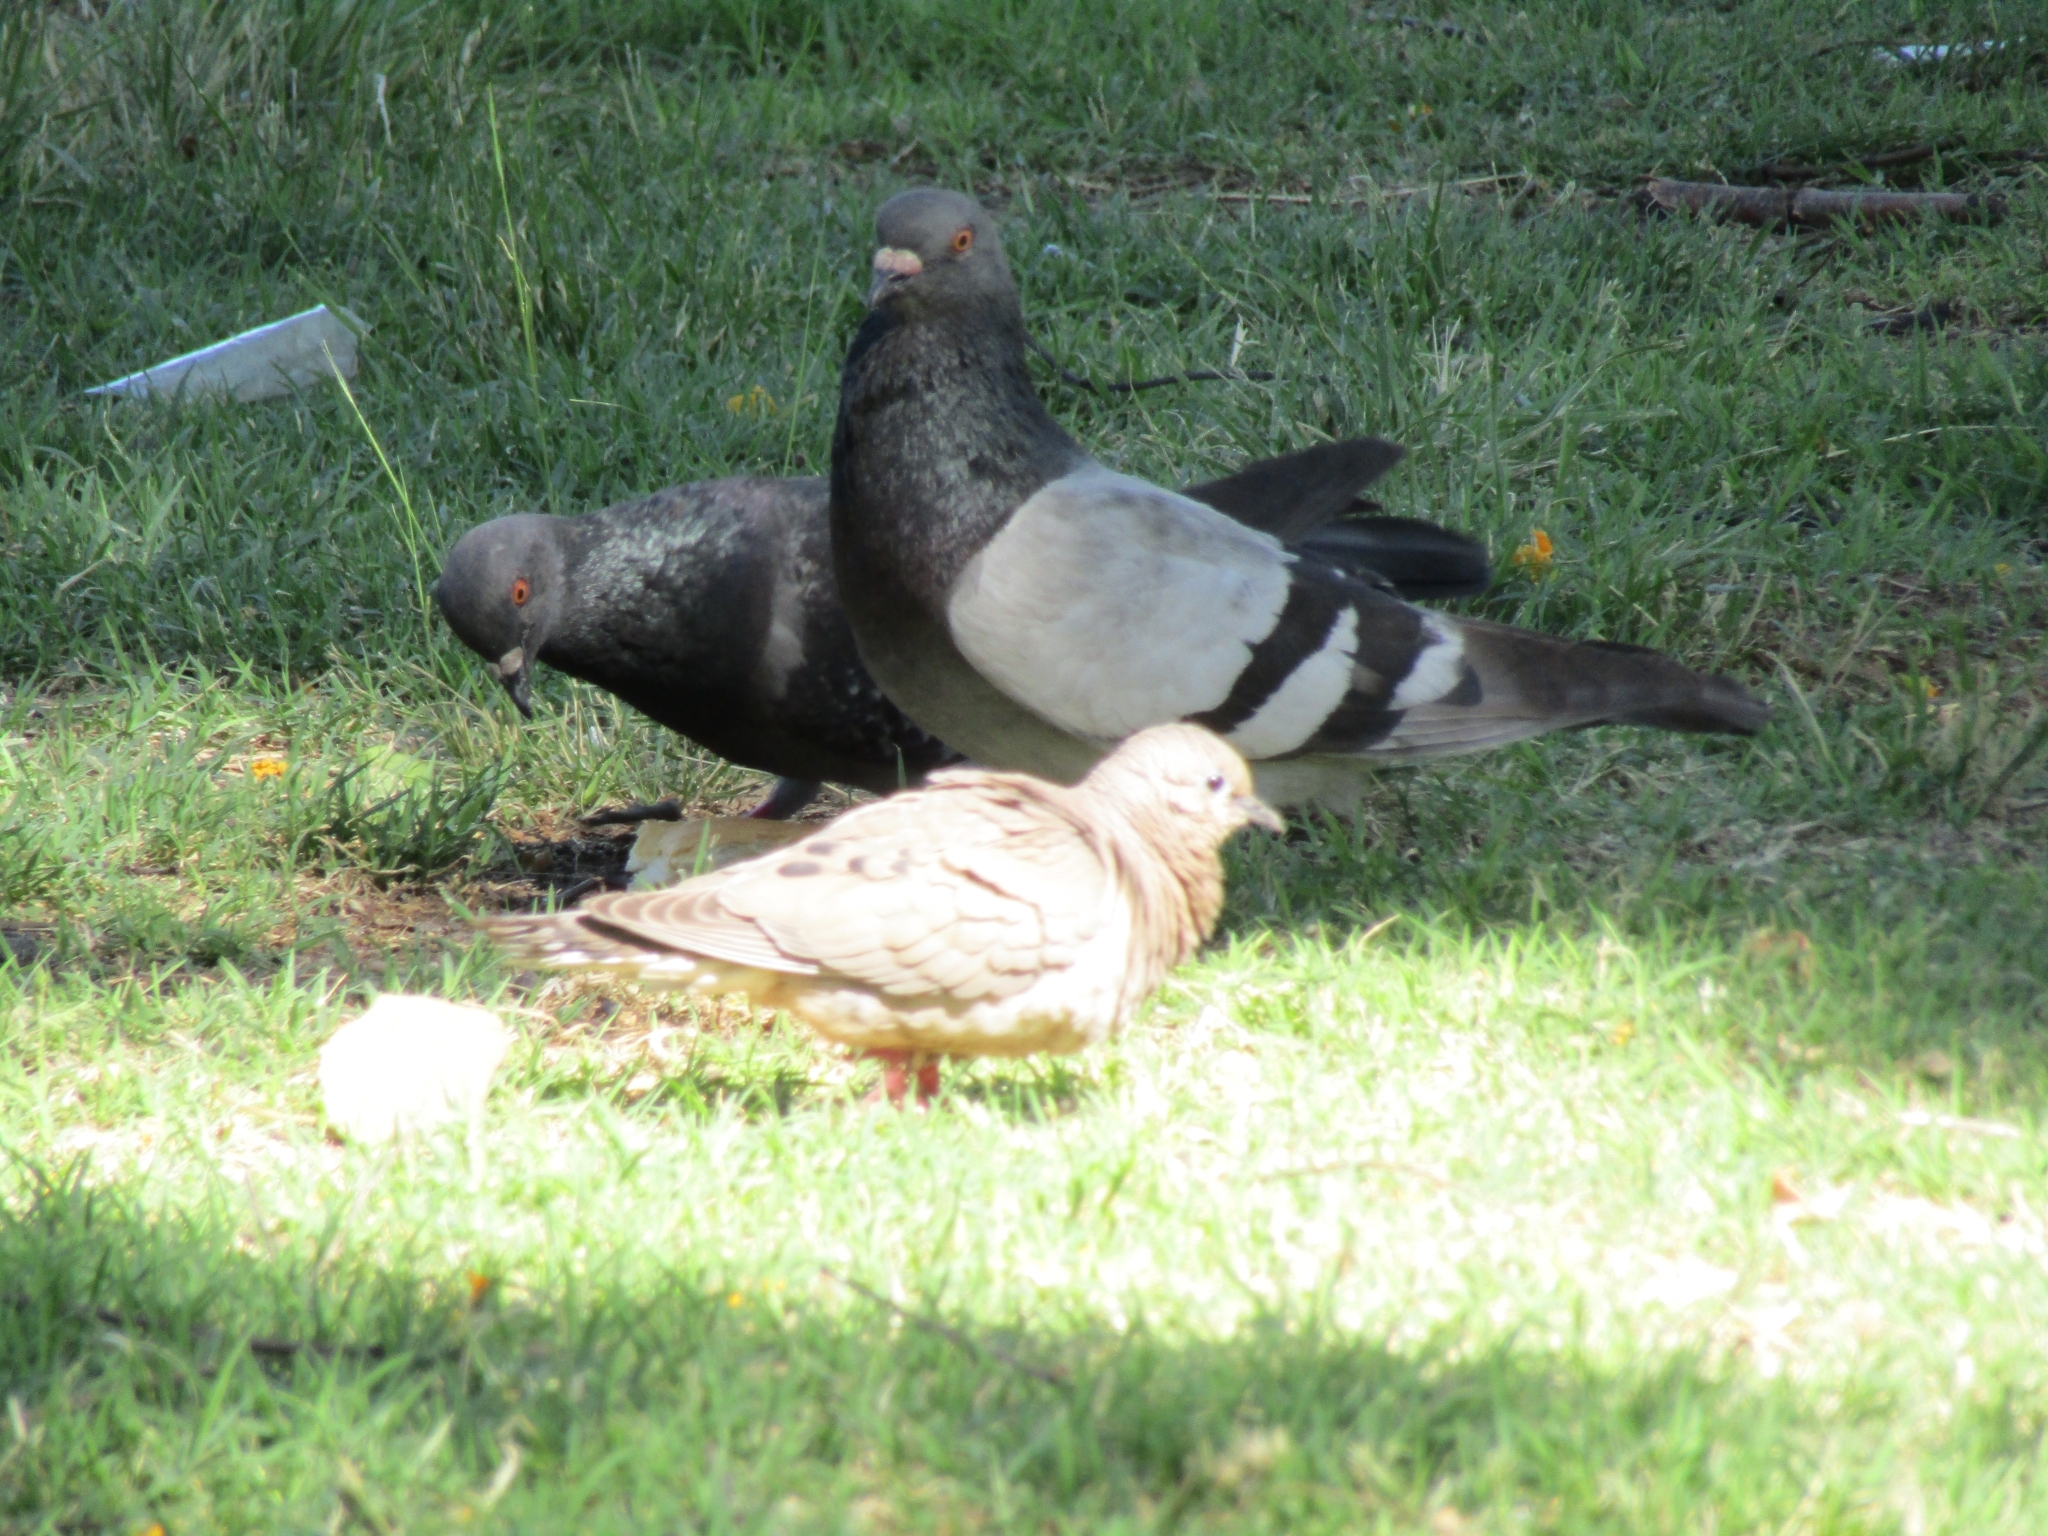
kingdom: Animalia
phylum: Chordata
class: Aves
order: Columbiformes
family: Columbidae
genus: Zenaida
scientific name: Zenaida auriculata
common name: Eared dove
